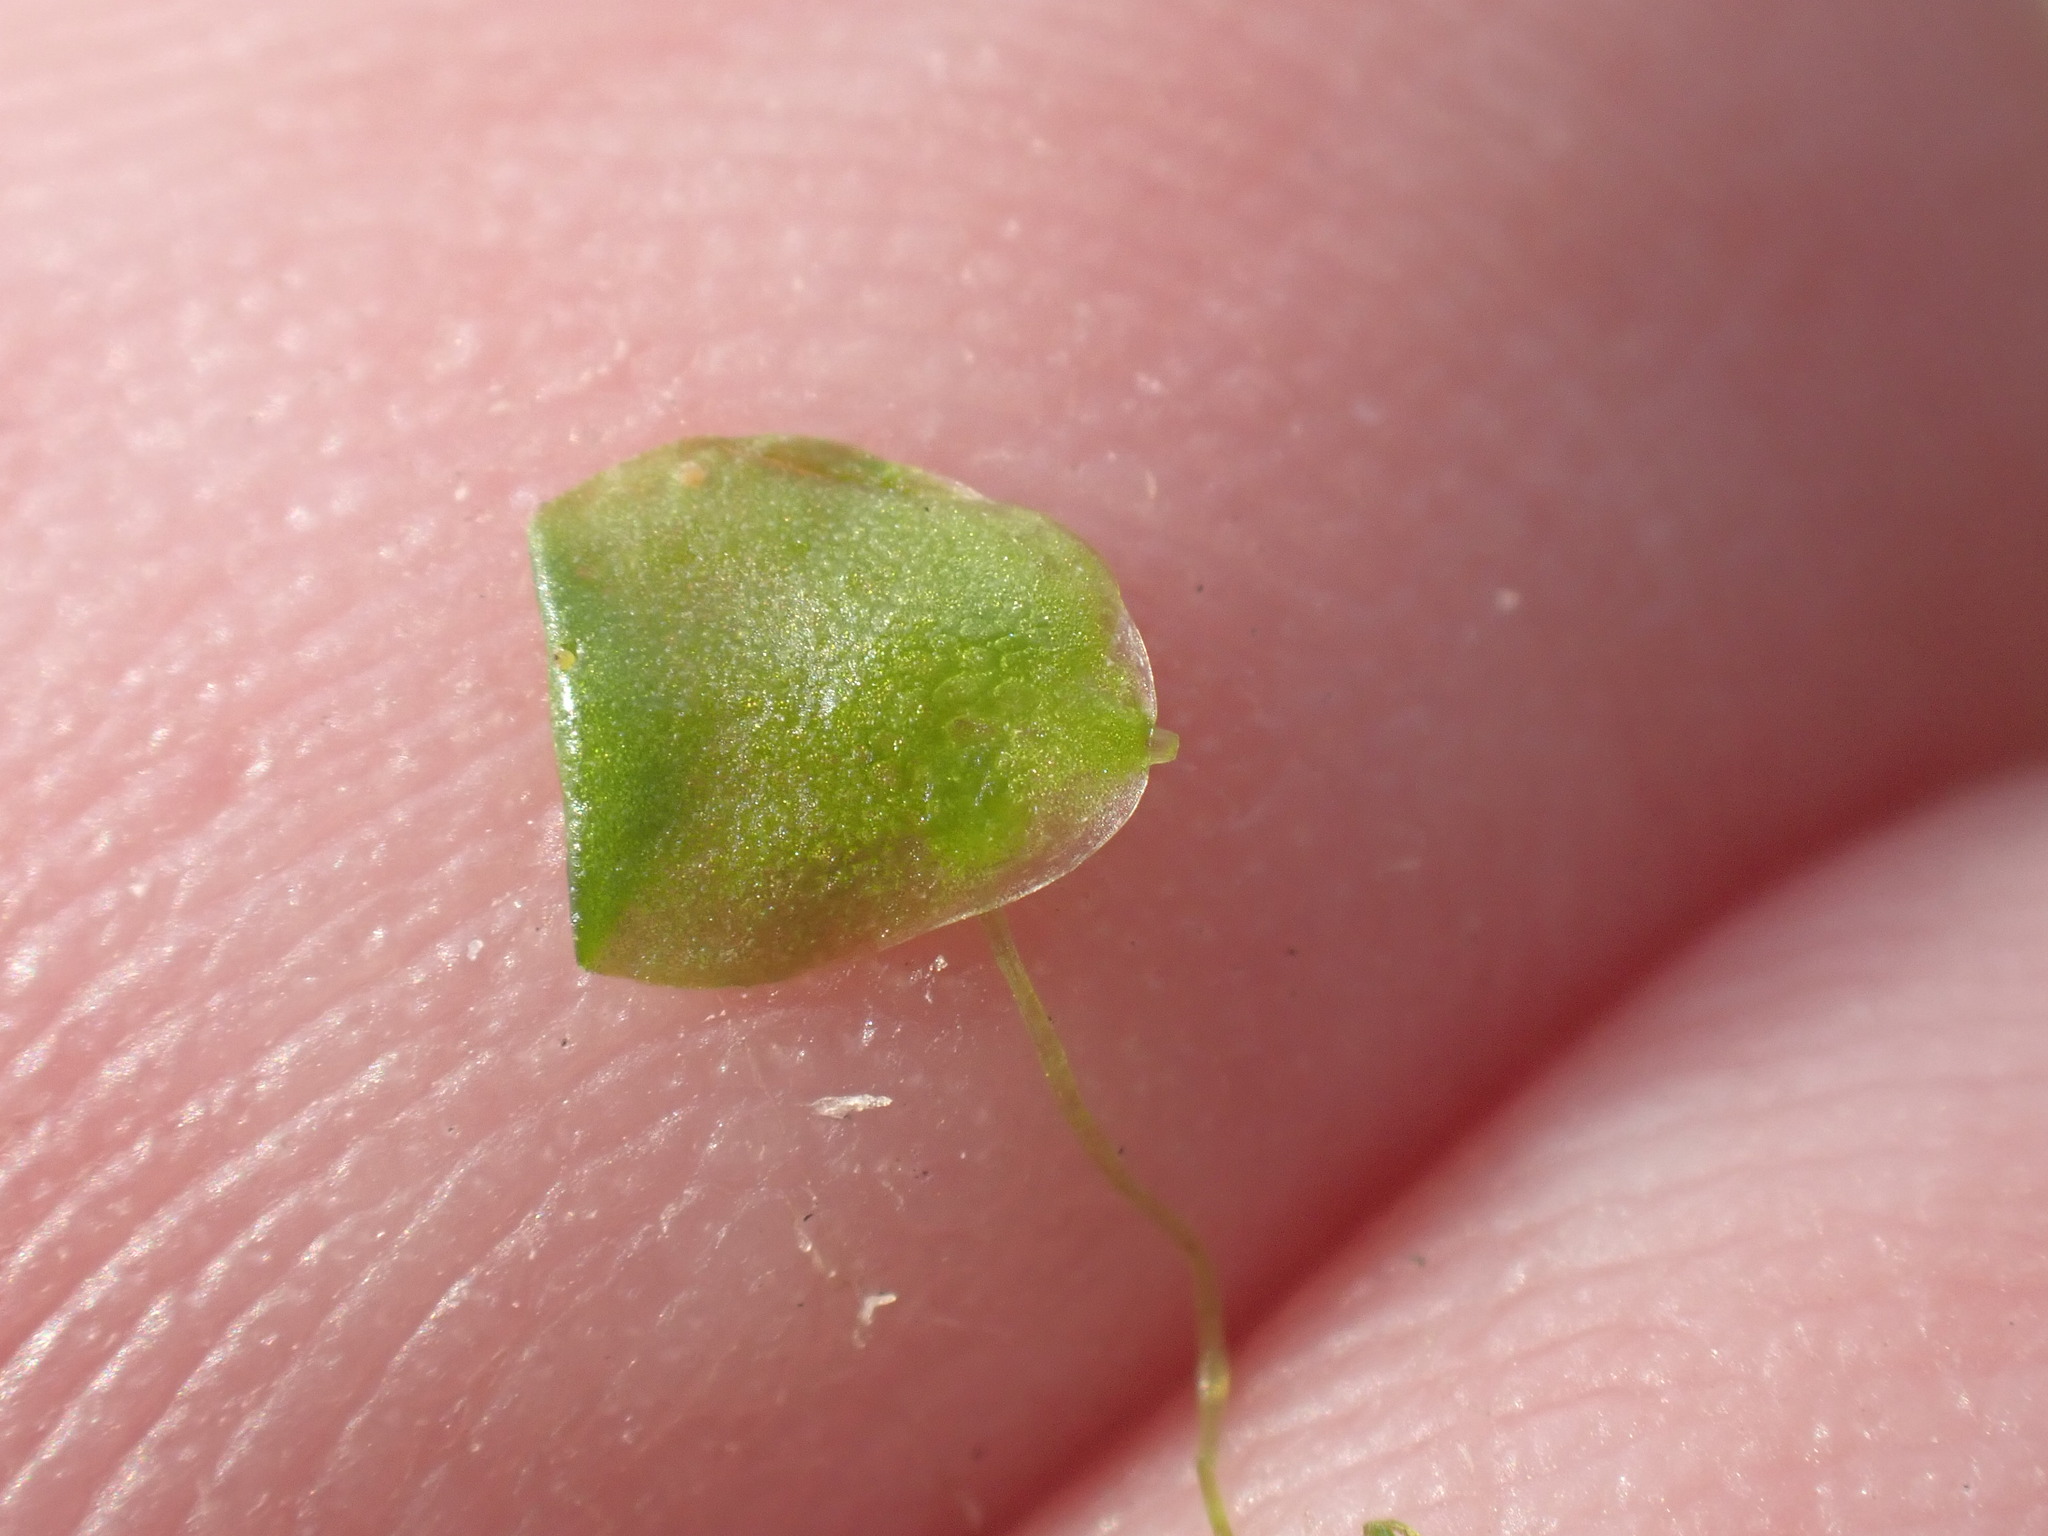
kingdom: Plantae
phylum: Tracheophyta
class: Liliopsida
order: Alismatales
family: Araceae
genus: Lemna
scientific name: Lemna gibba
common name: Fat duckweed
